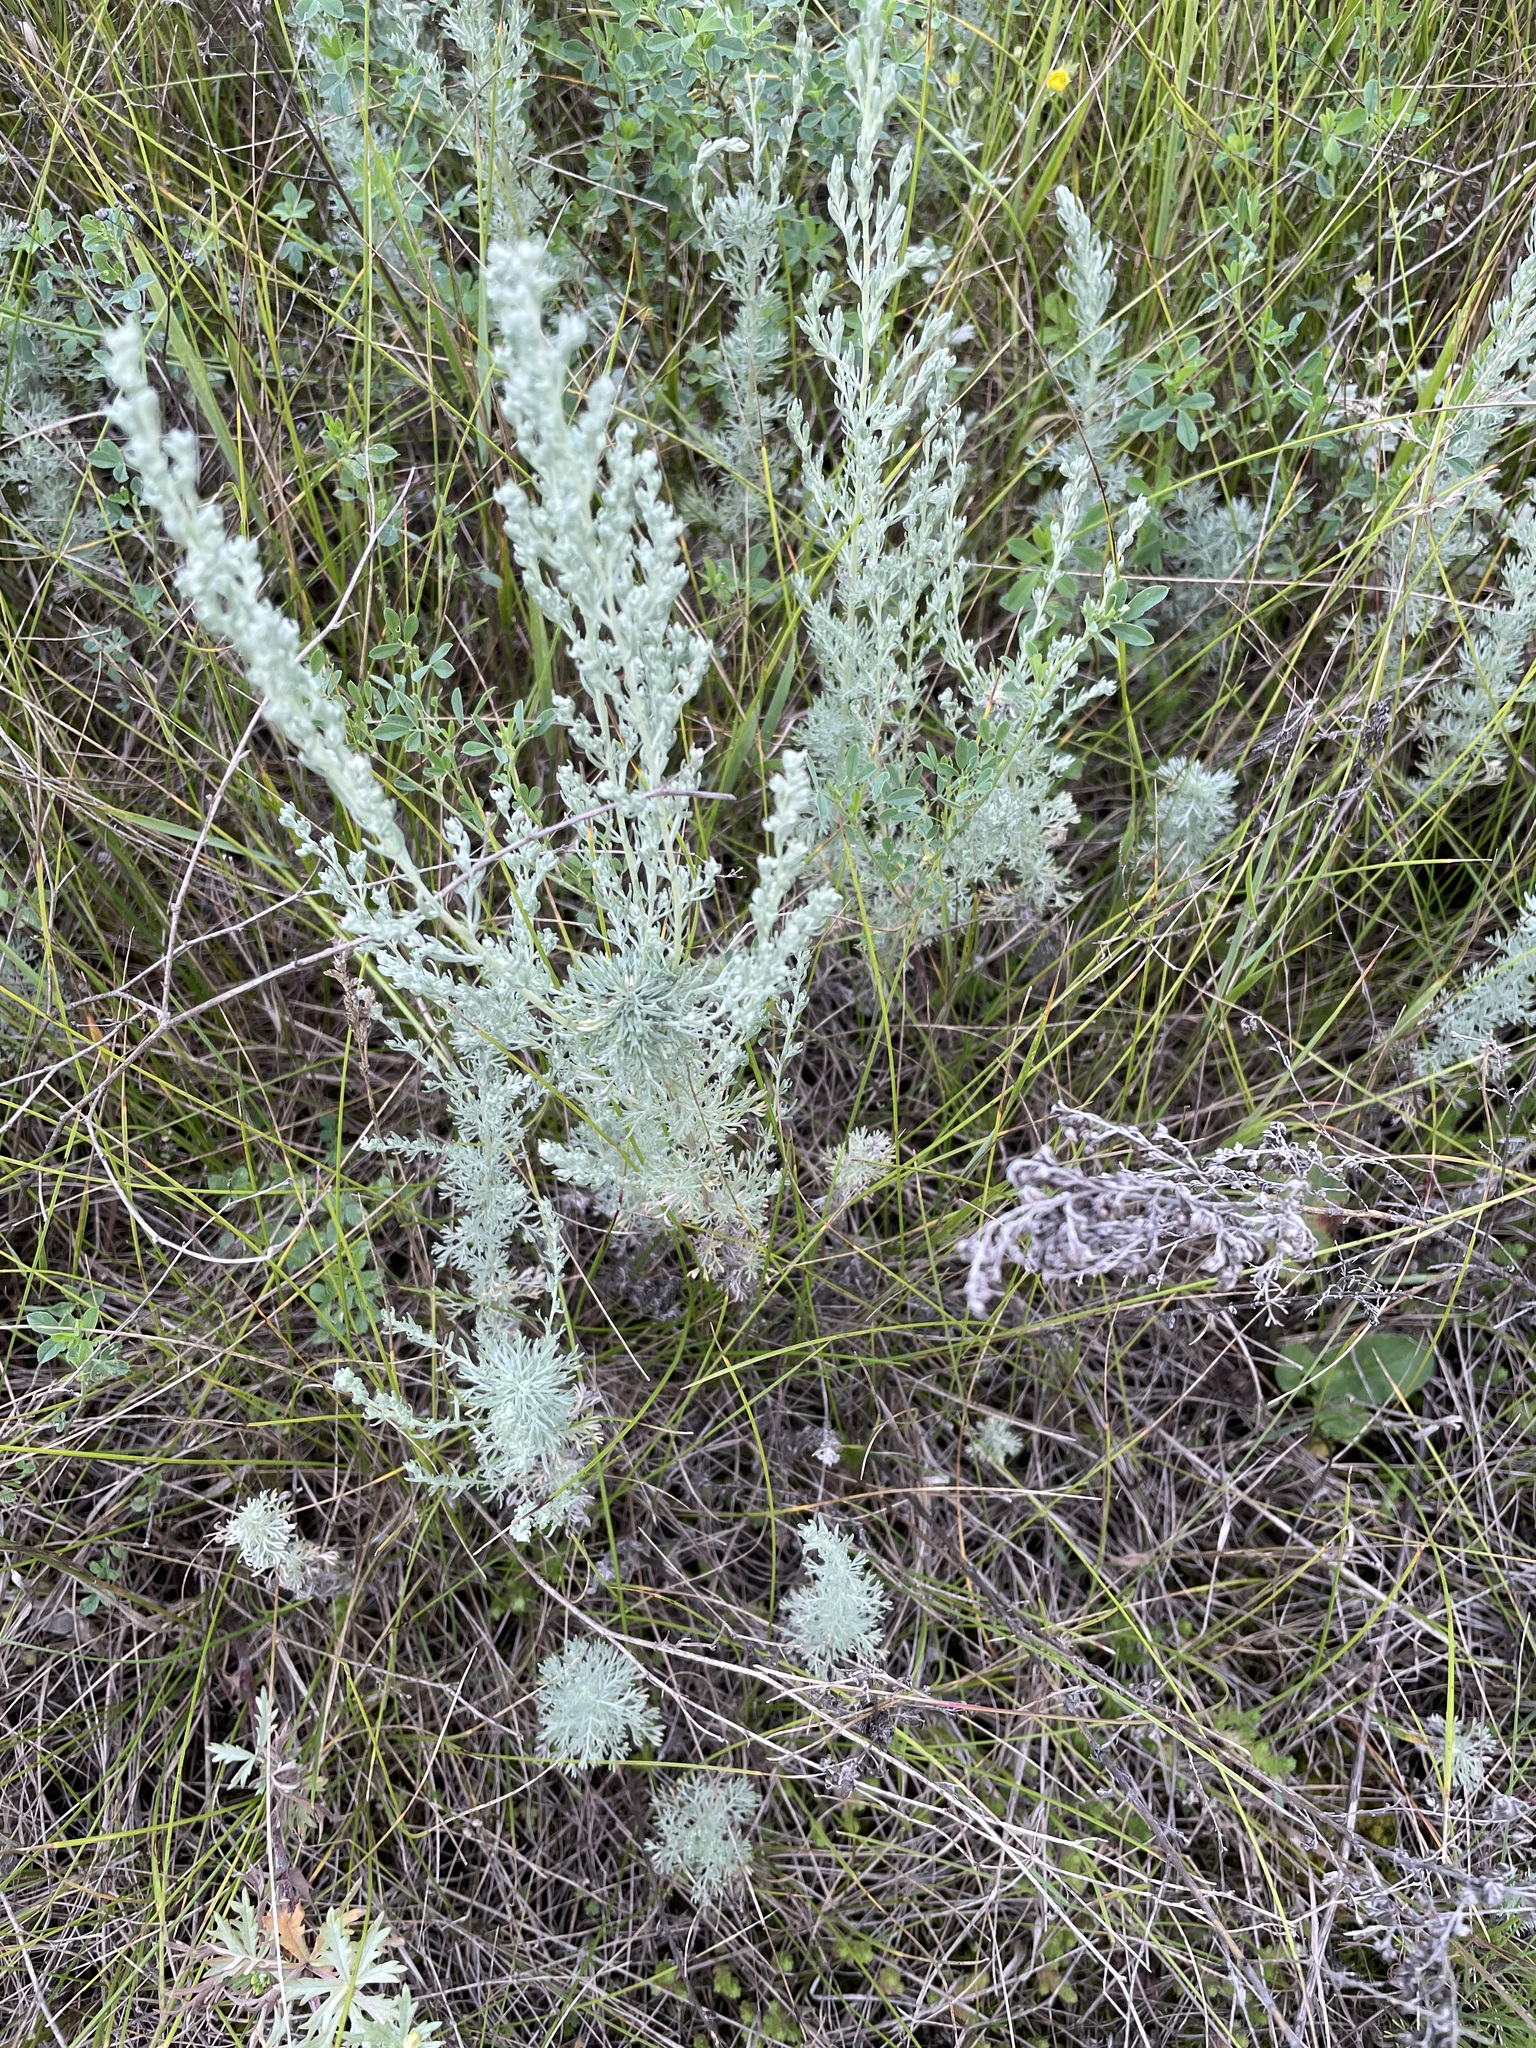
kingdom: Plantae
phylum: Tracheophyta
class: Magnoliopsida
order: Asterales
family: Asteraceae
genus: Artemisia
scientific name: Artemisia austriaca
